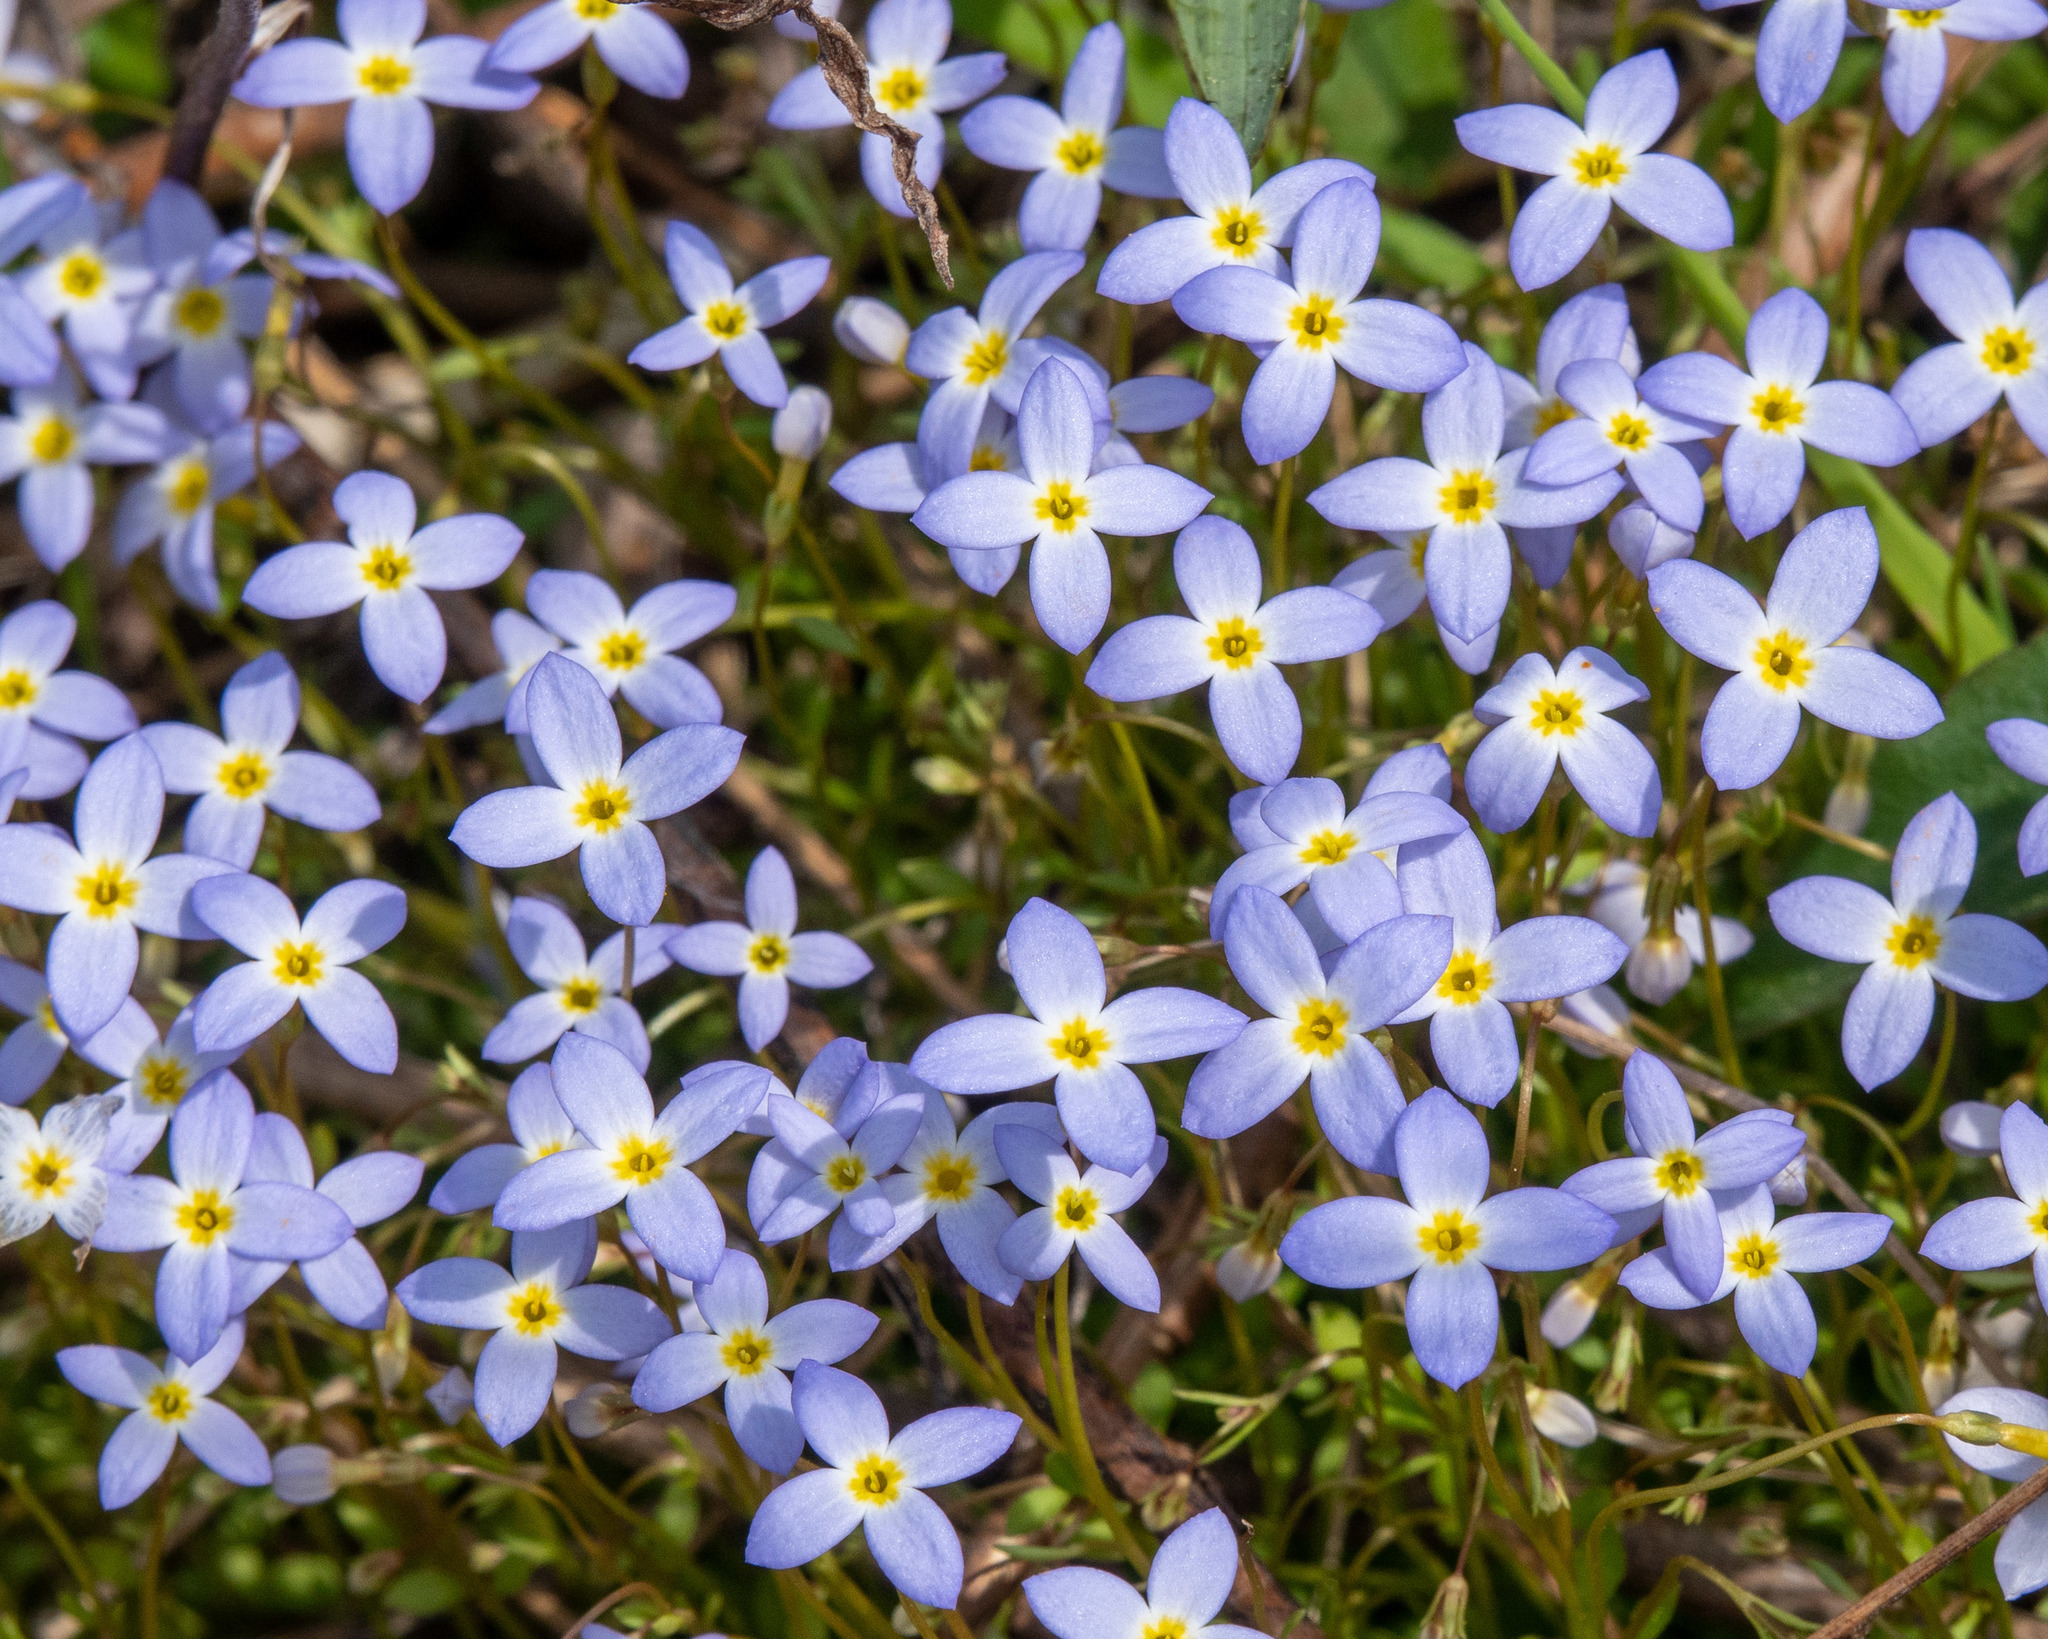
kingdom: Plantae
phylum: Tracheophyta
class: Magnoliopsida
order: Gentianales
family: Rubiaceae
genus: Houstonia
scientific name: Houstonia caerulea
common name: Bluets
